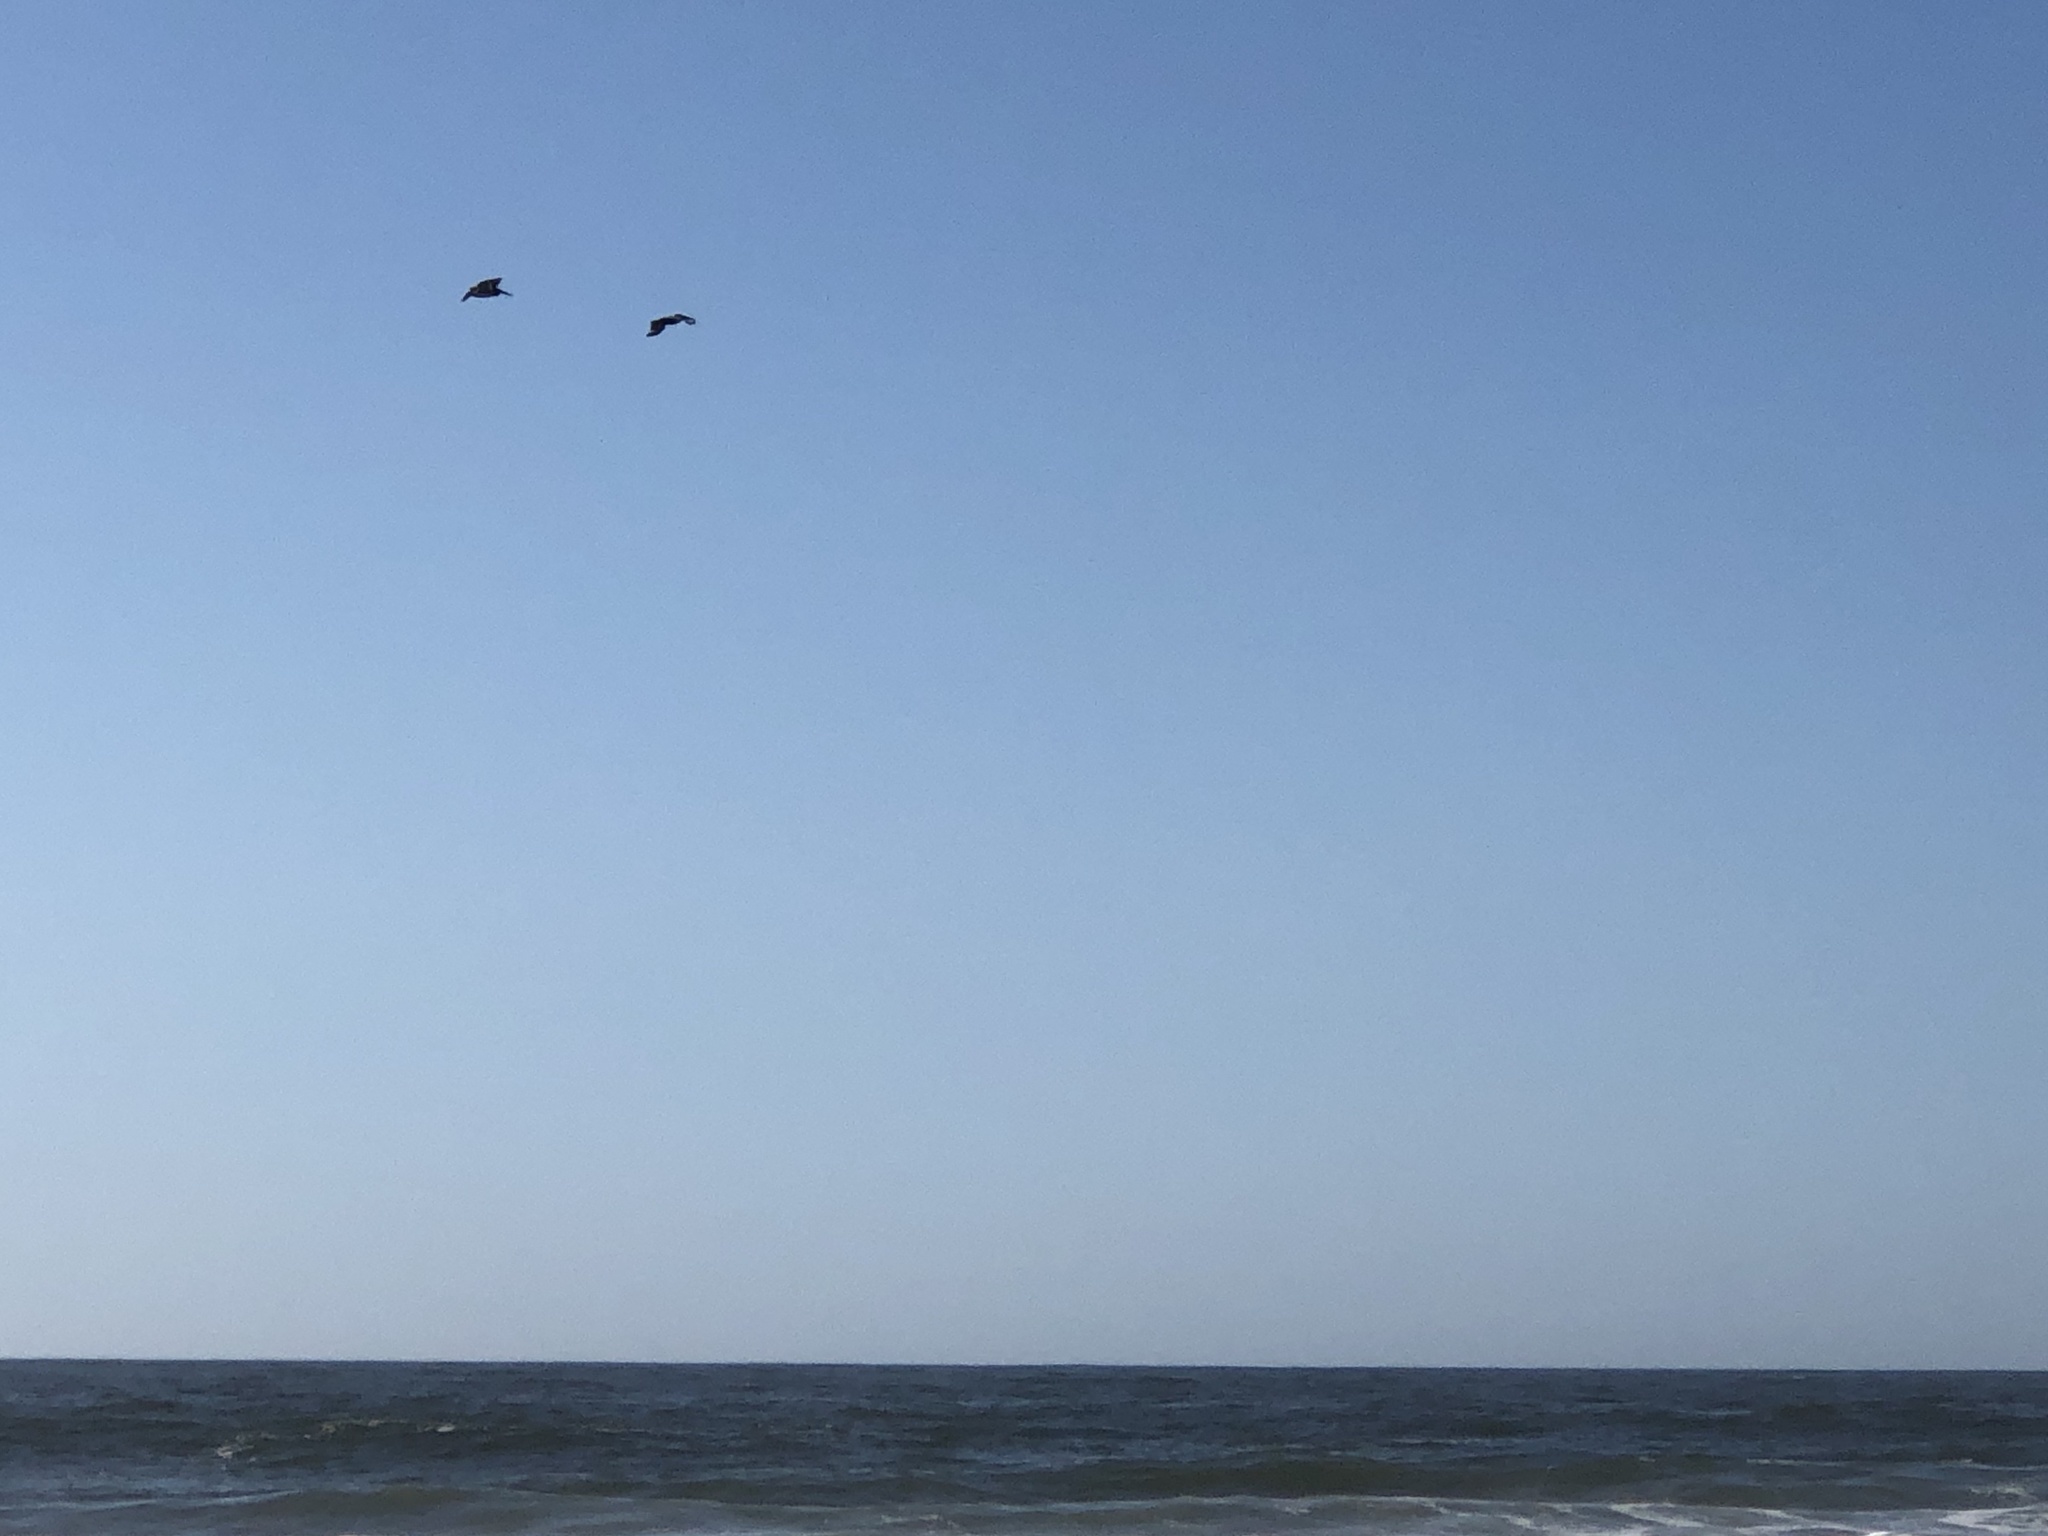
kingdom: Animalia
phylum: Chordata
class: Aves
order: Pelecaniformes
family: Pelecanidae
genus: Pelecanus
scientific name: Pelecanus occidentalis
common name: Brown pelican
